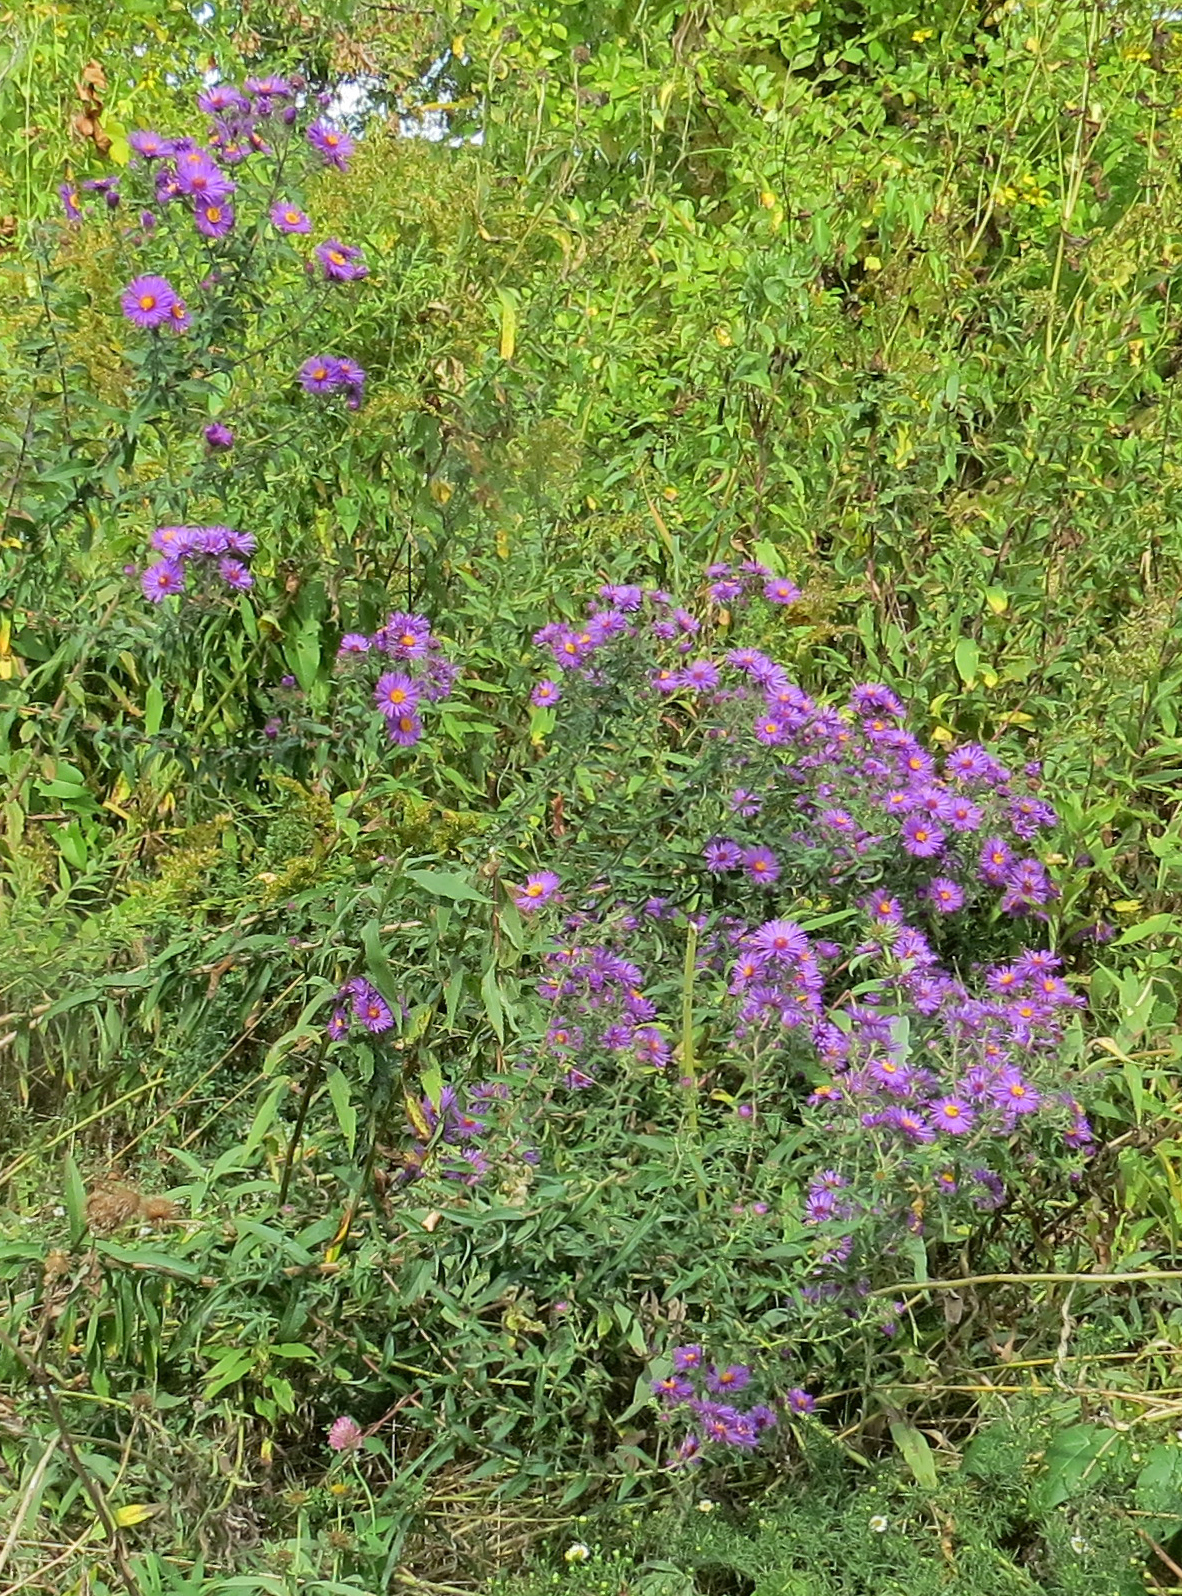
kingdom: Plantae
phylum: Tracheophyta
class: Magnoliopsida
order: Asterales
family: Asteraceae
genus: Symphyotrichum
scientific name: Symphyotrichum novae-angliae
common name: Michaelmas daisy
